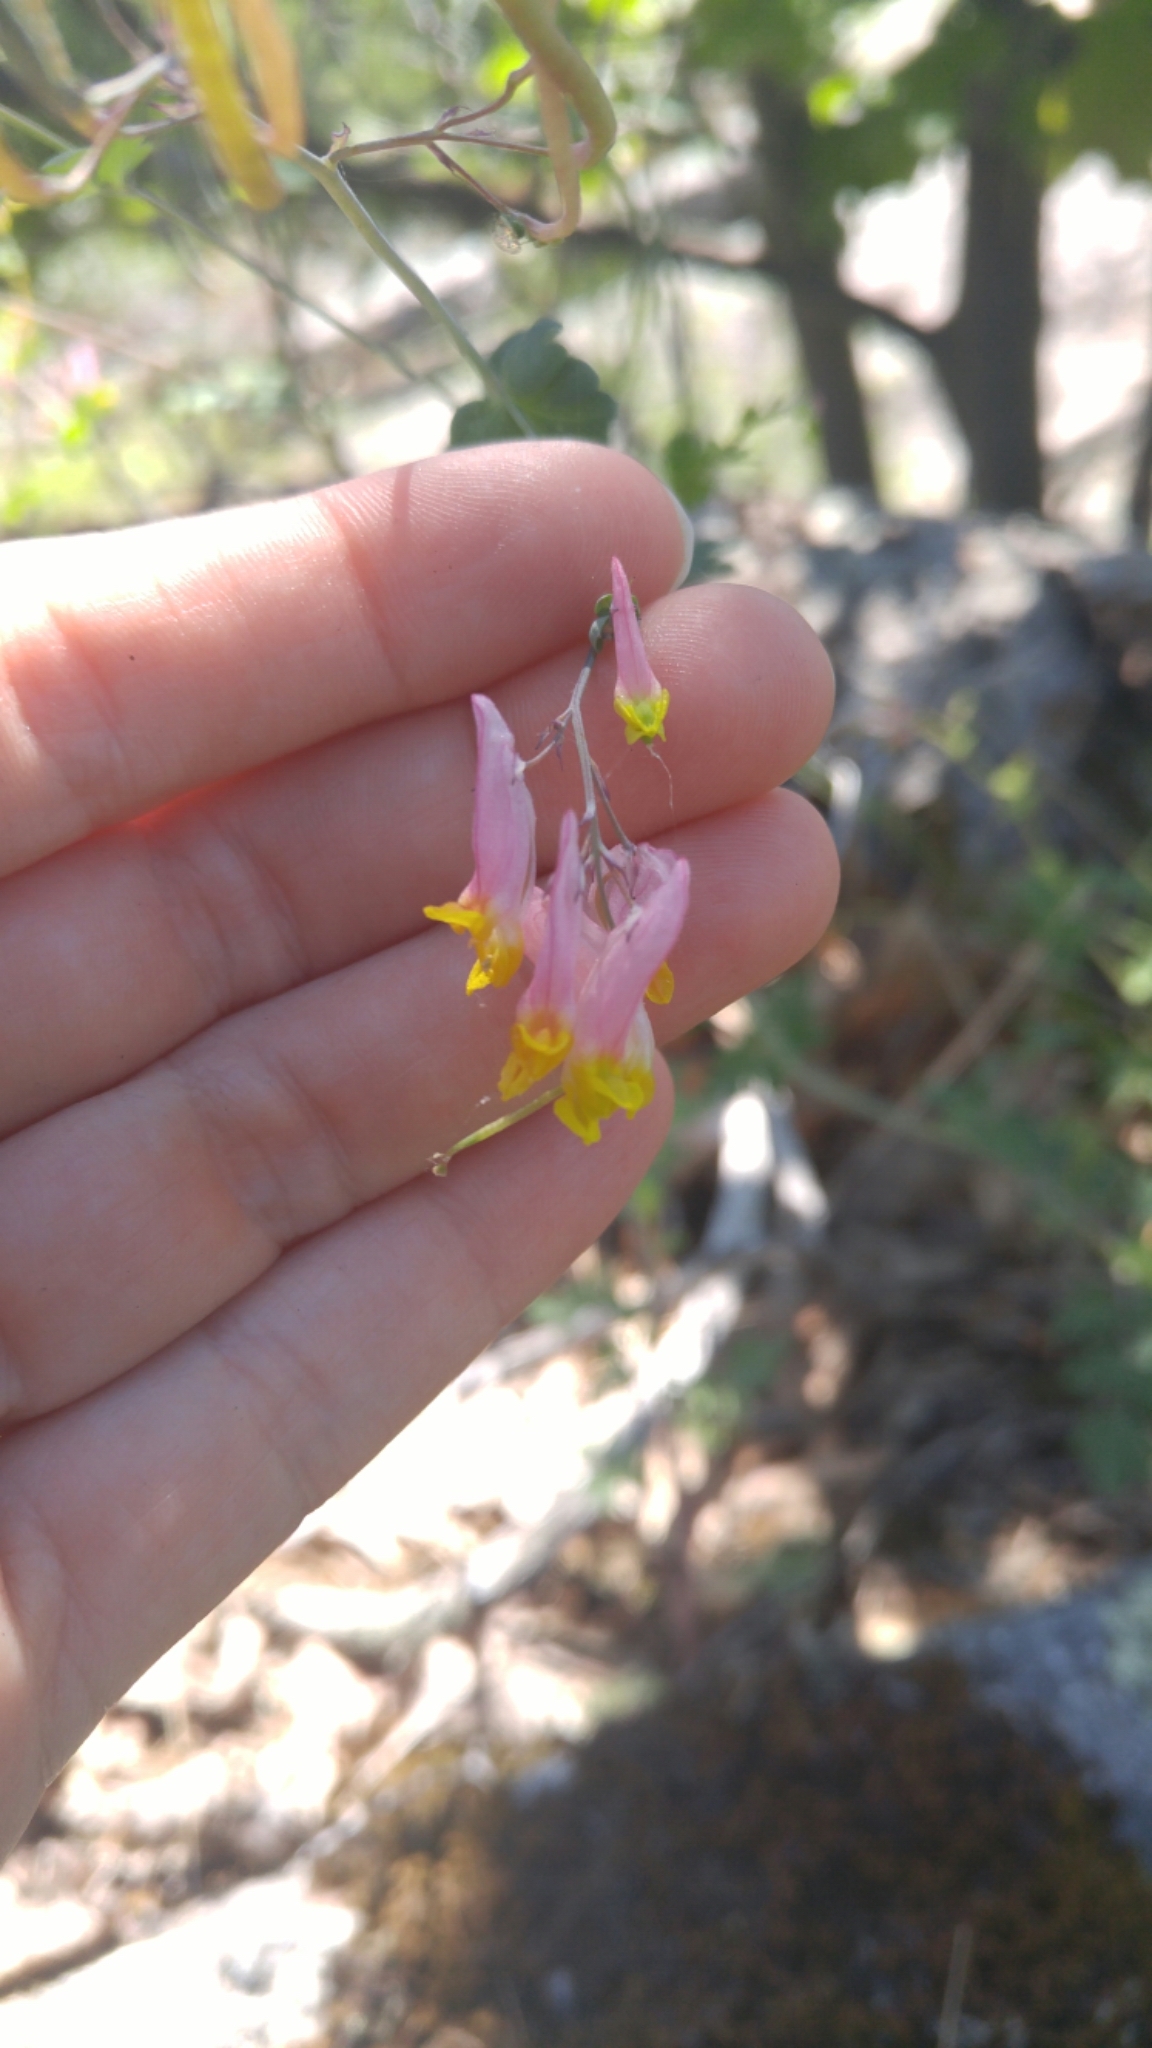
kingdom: Plantae
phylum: Tracheophyta
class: Magnoliopsida
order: Ranunculales
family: Papaveraceae
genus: Capnoides
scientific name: Capnoides sempervirens
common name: Rock harlequin
